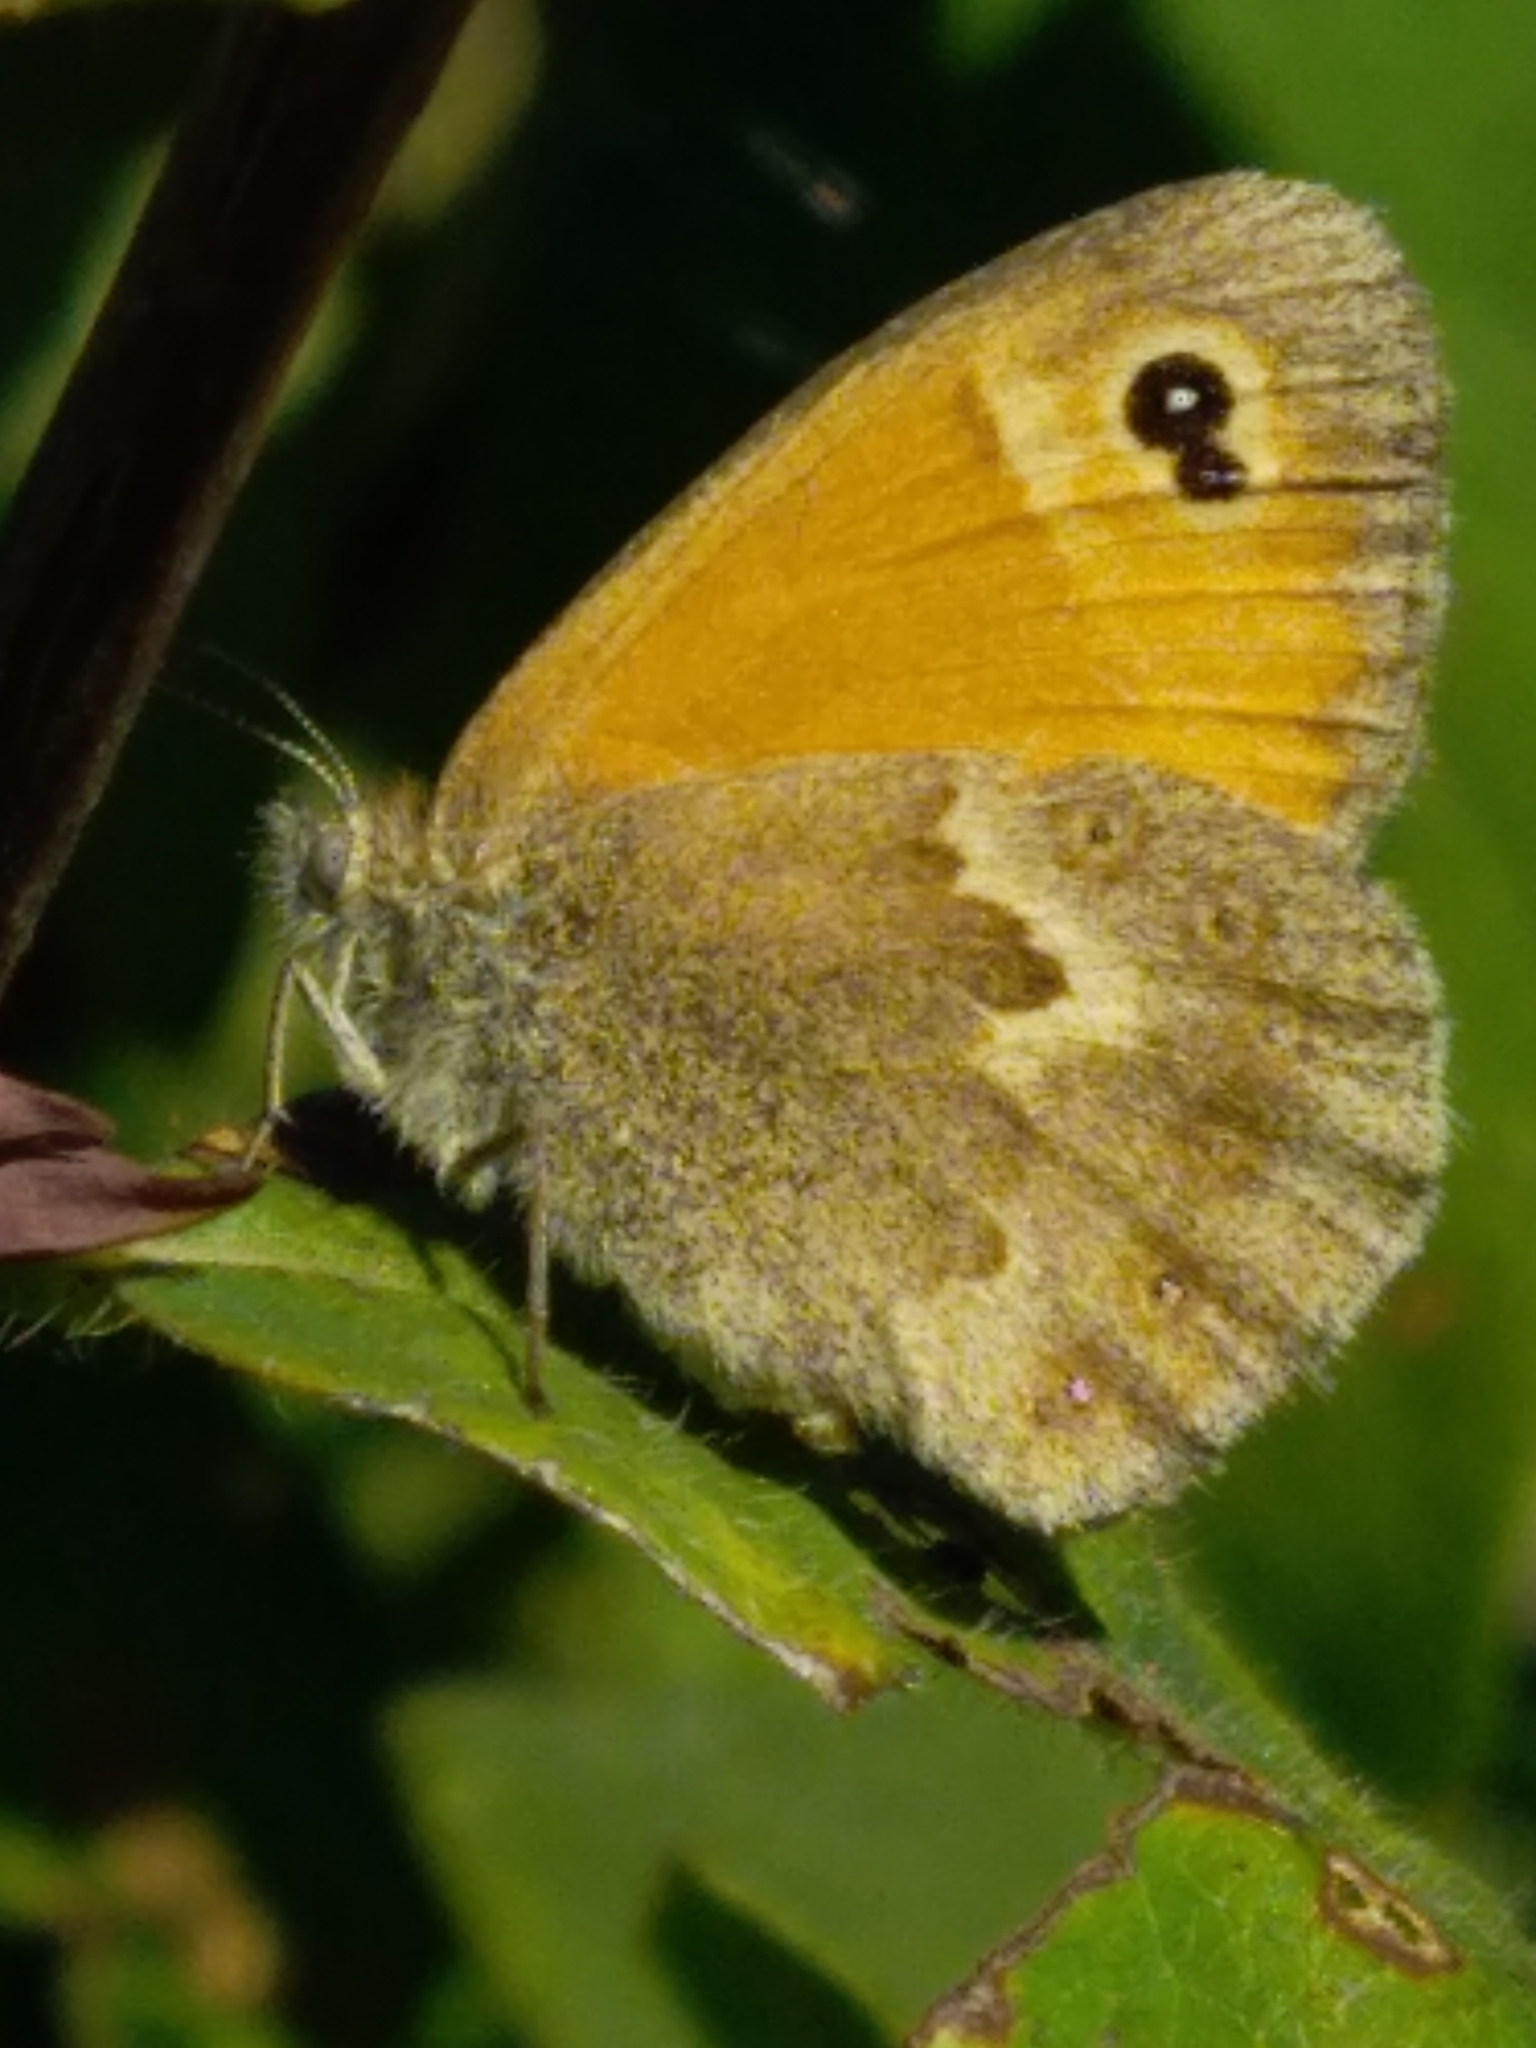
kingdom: Animalia
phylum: Arthropoda
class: Insecta
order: Lepidoptera
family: Nymphalidae
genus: Coenonympha
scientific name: Coenonympha pamphilus
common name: Small heath
